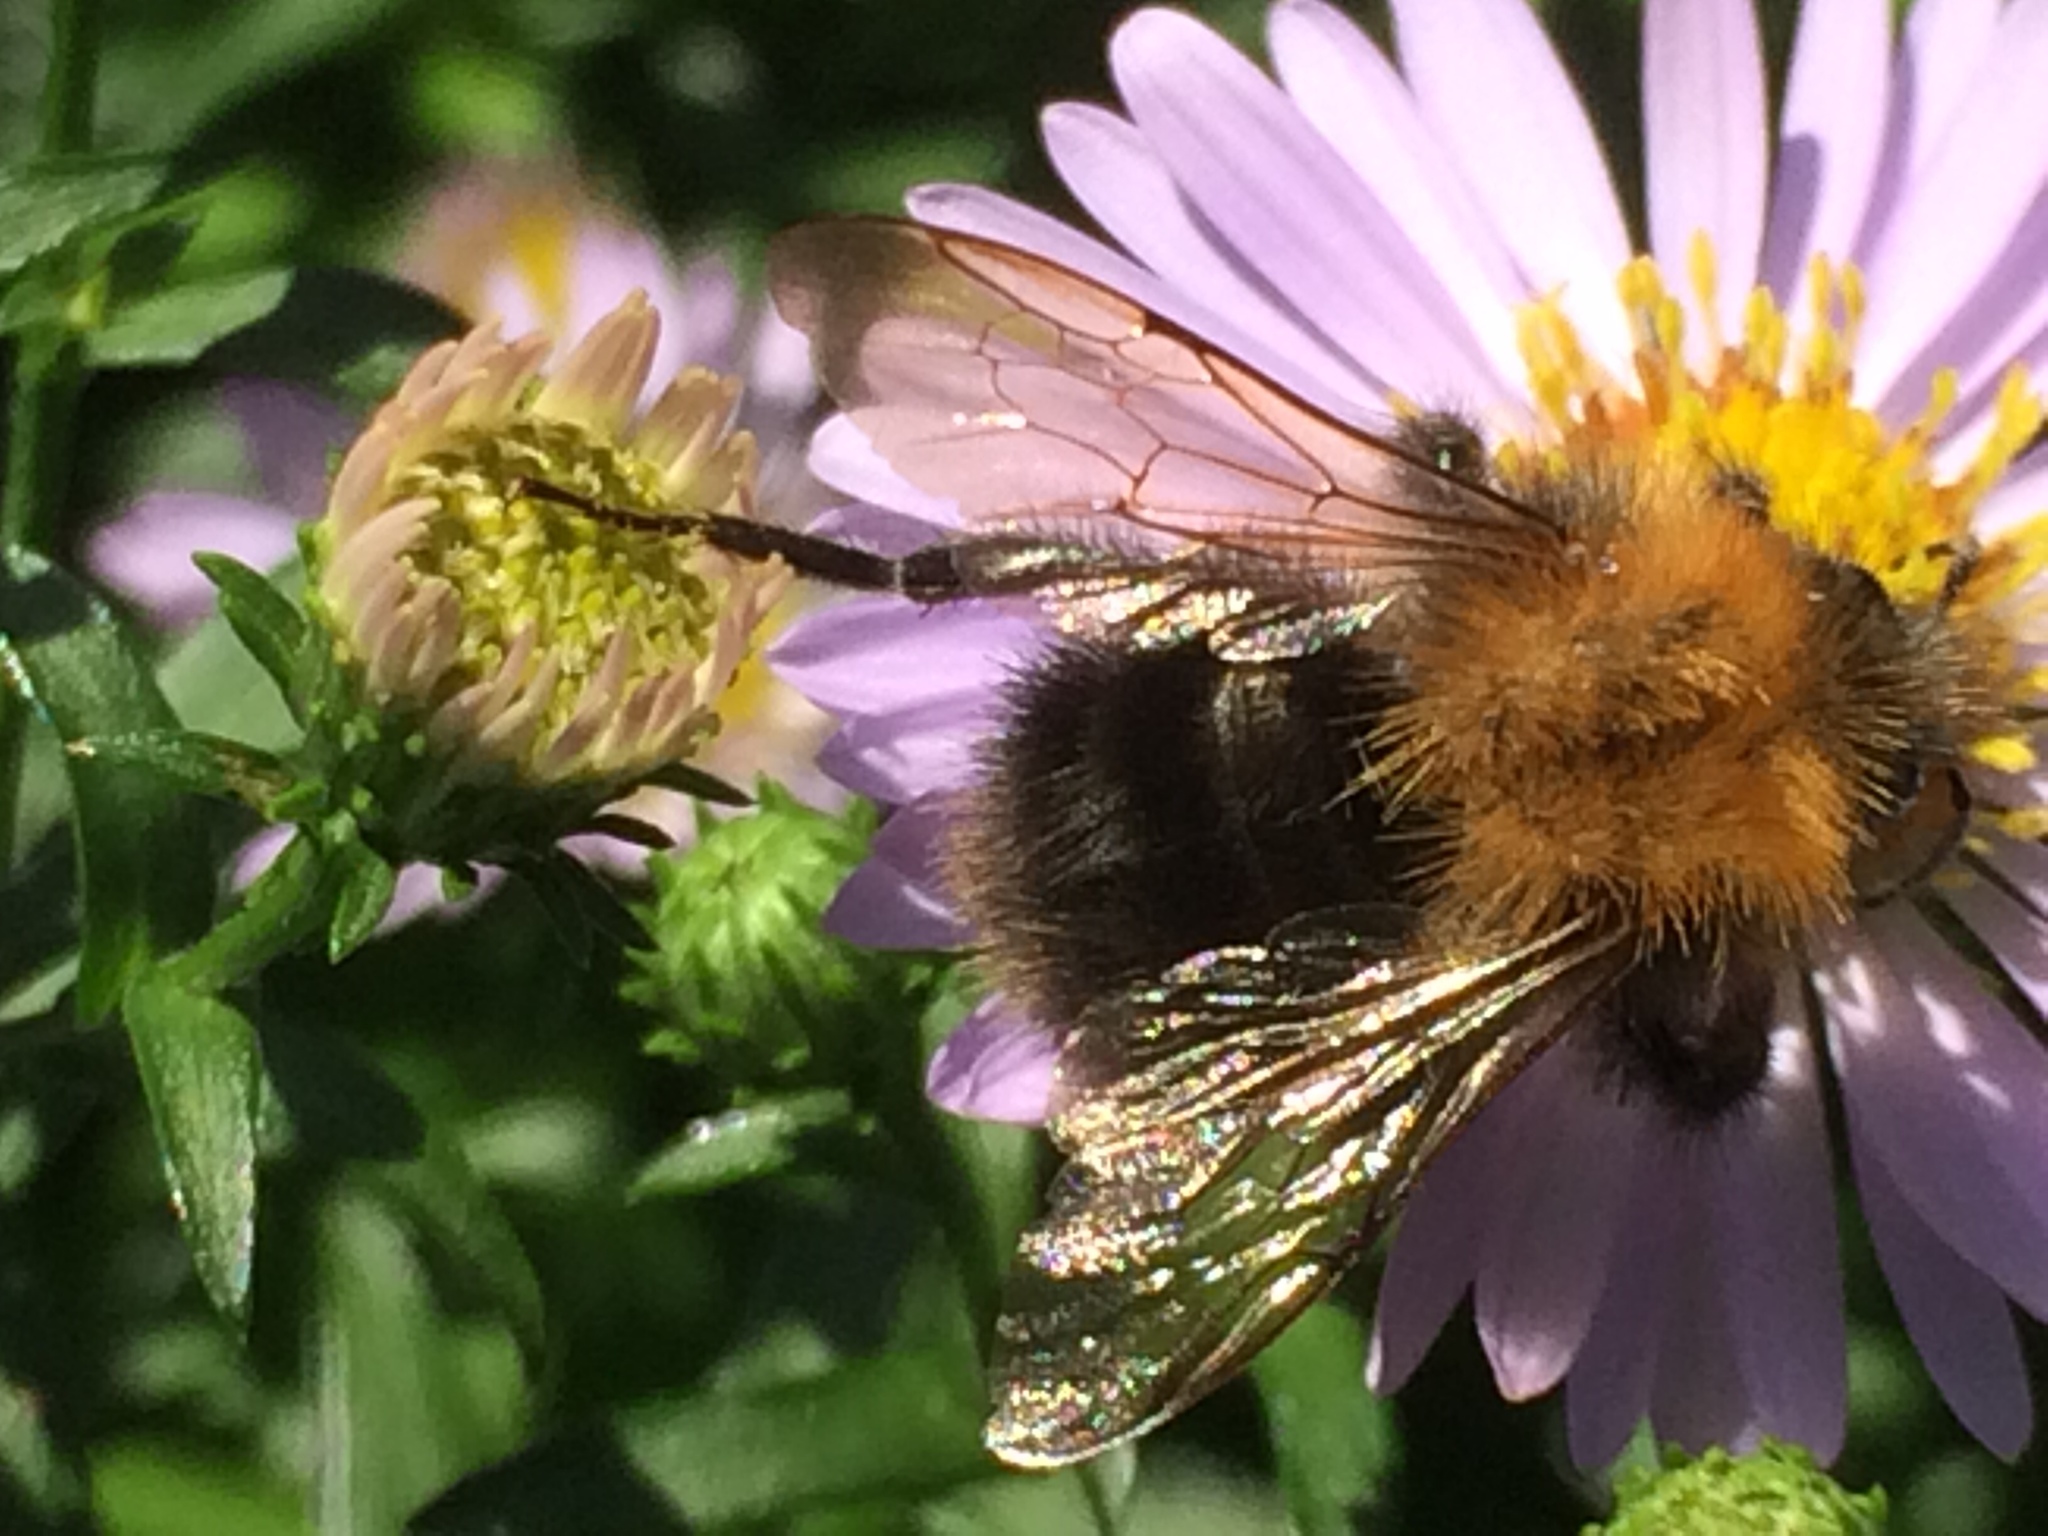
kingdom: Animalia
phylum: Arthropoda
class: Insecta
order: Hymenoptera
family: Apidae
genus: Bombus
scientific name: Bombus pascuorum
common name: Common carder bee
